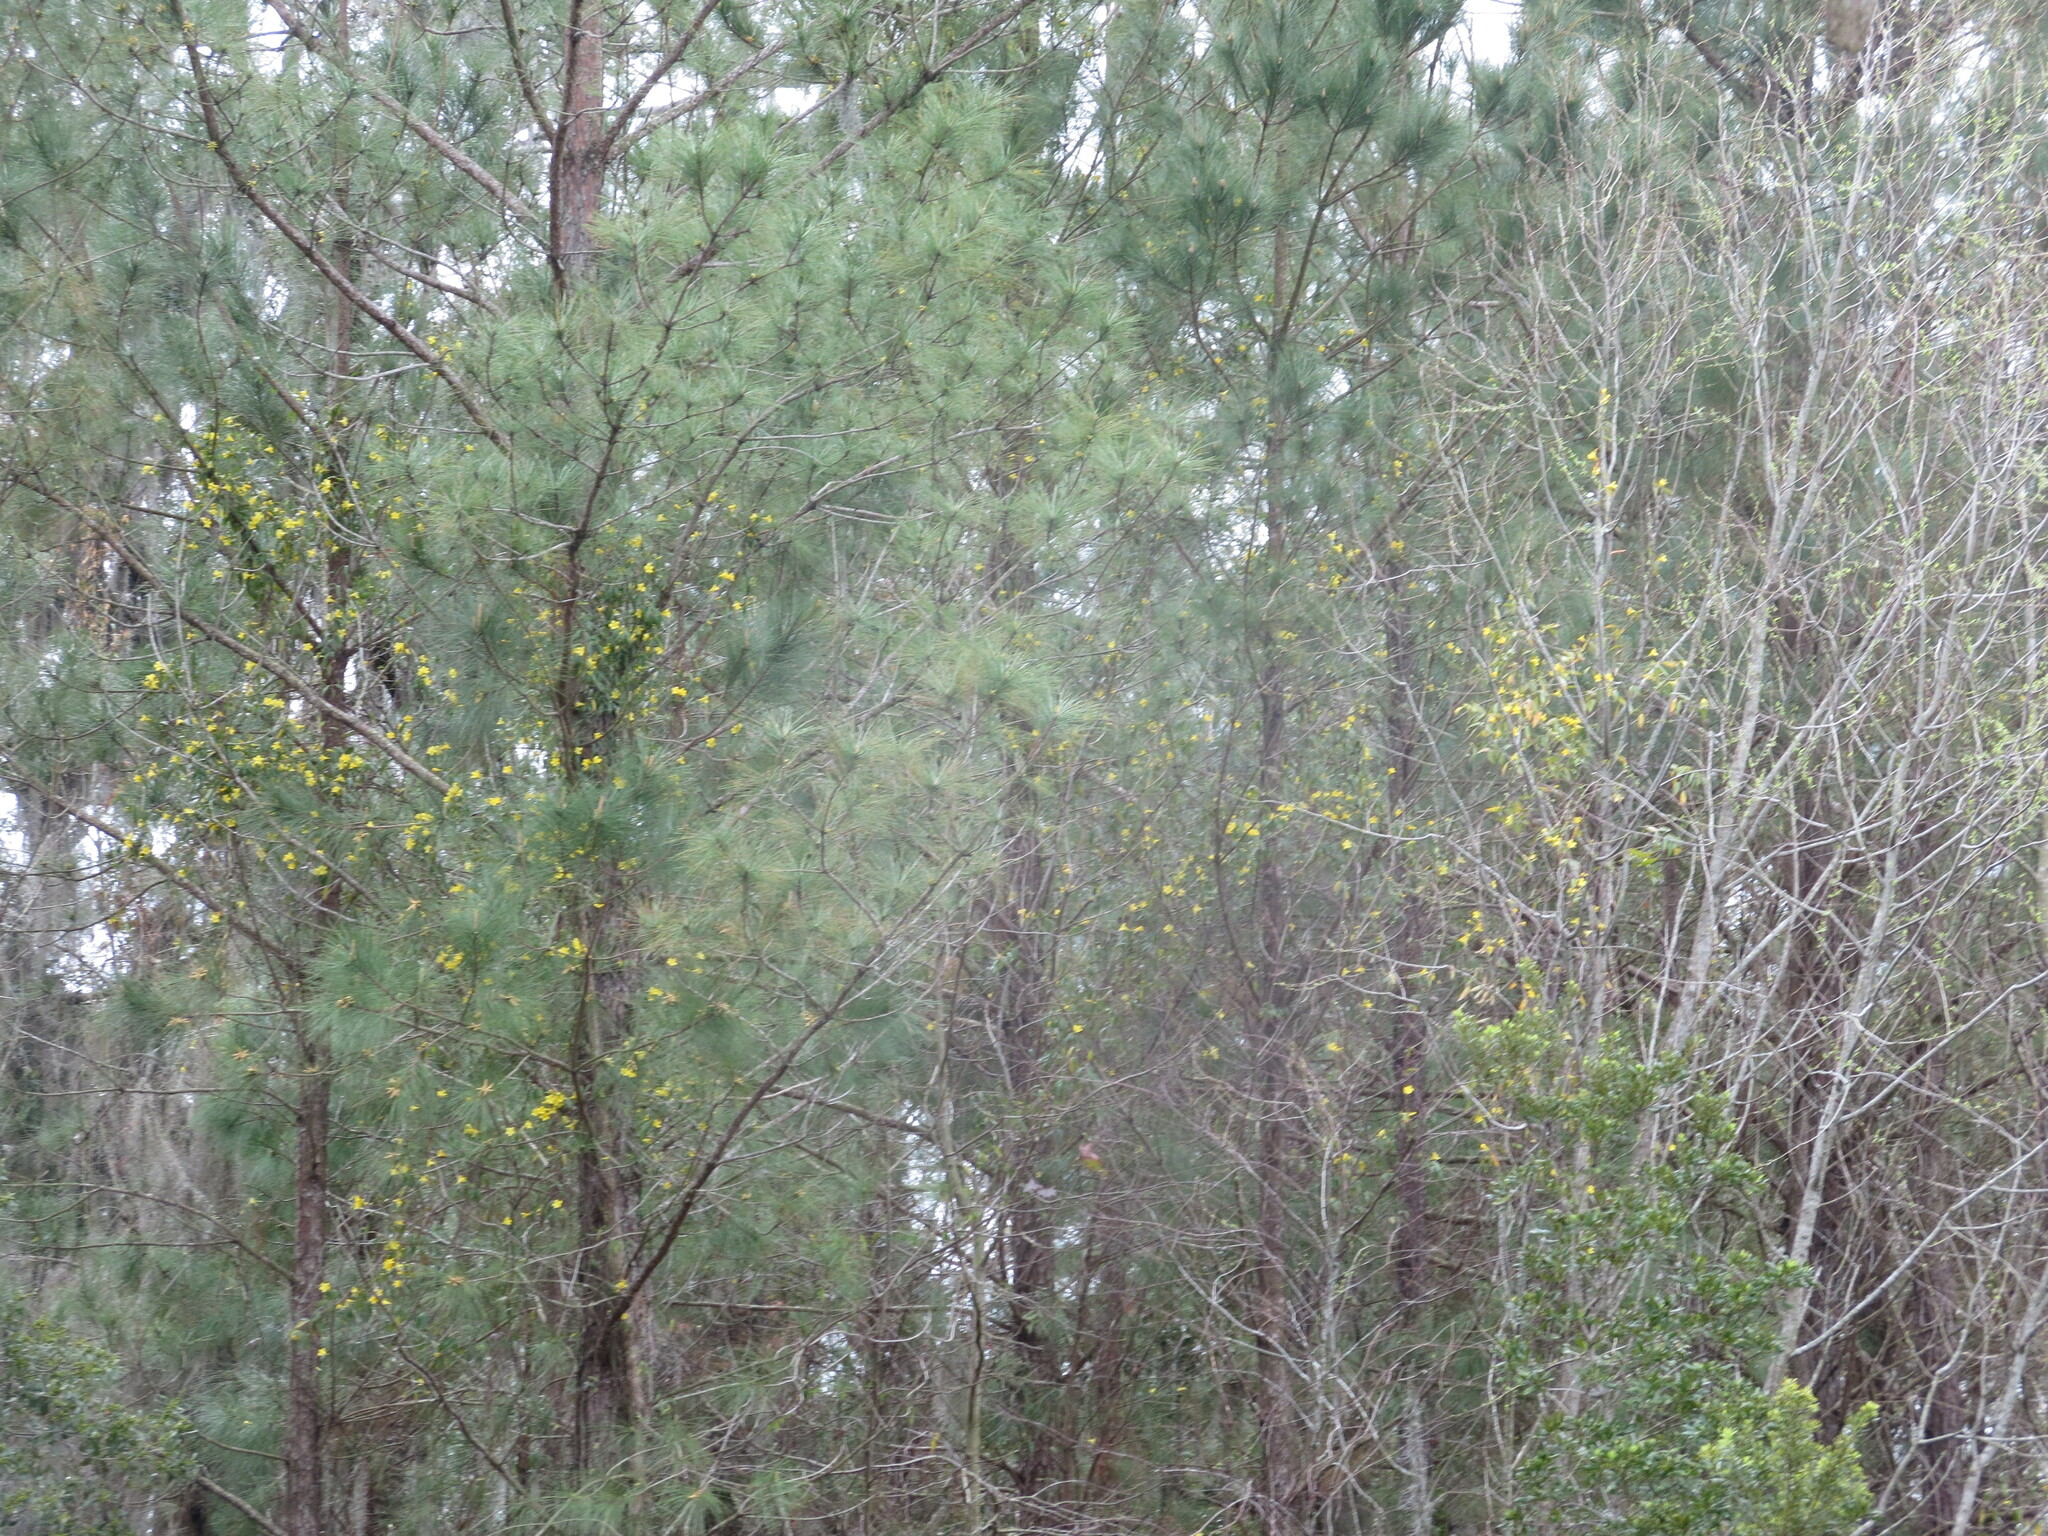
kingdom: Plantae
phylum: Tracheophyta
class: Magnoliopsida
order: Gentianales
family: Gelsemiaceae
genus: Gelsemium
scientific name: Gelsemium sempervirens
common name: Carolina-jasmine
